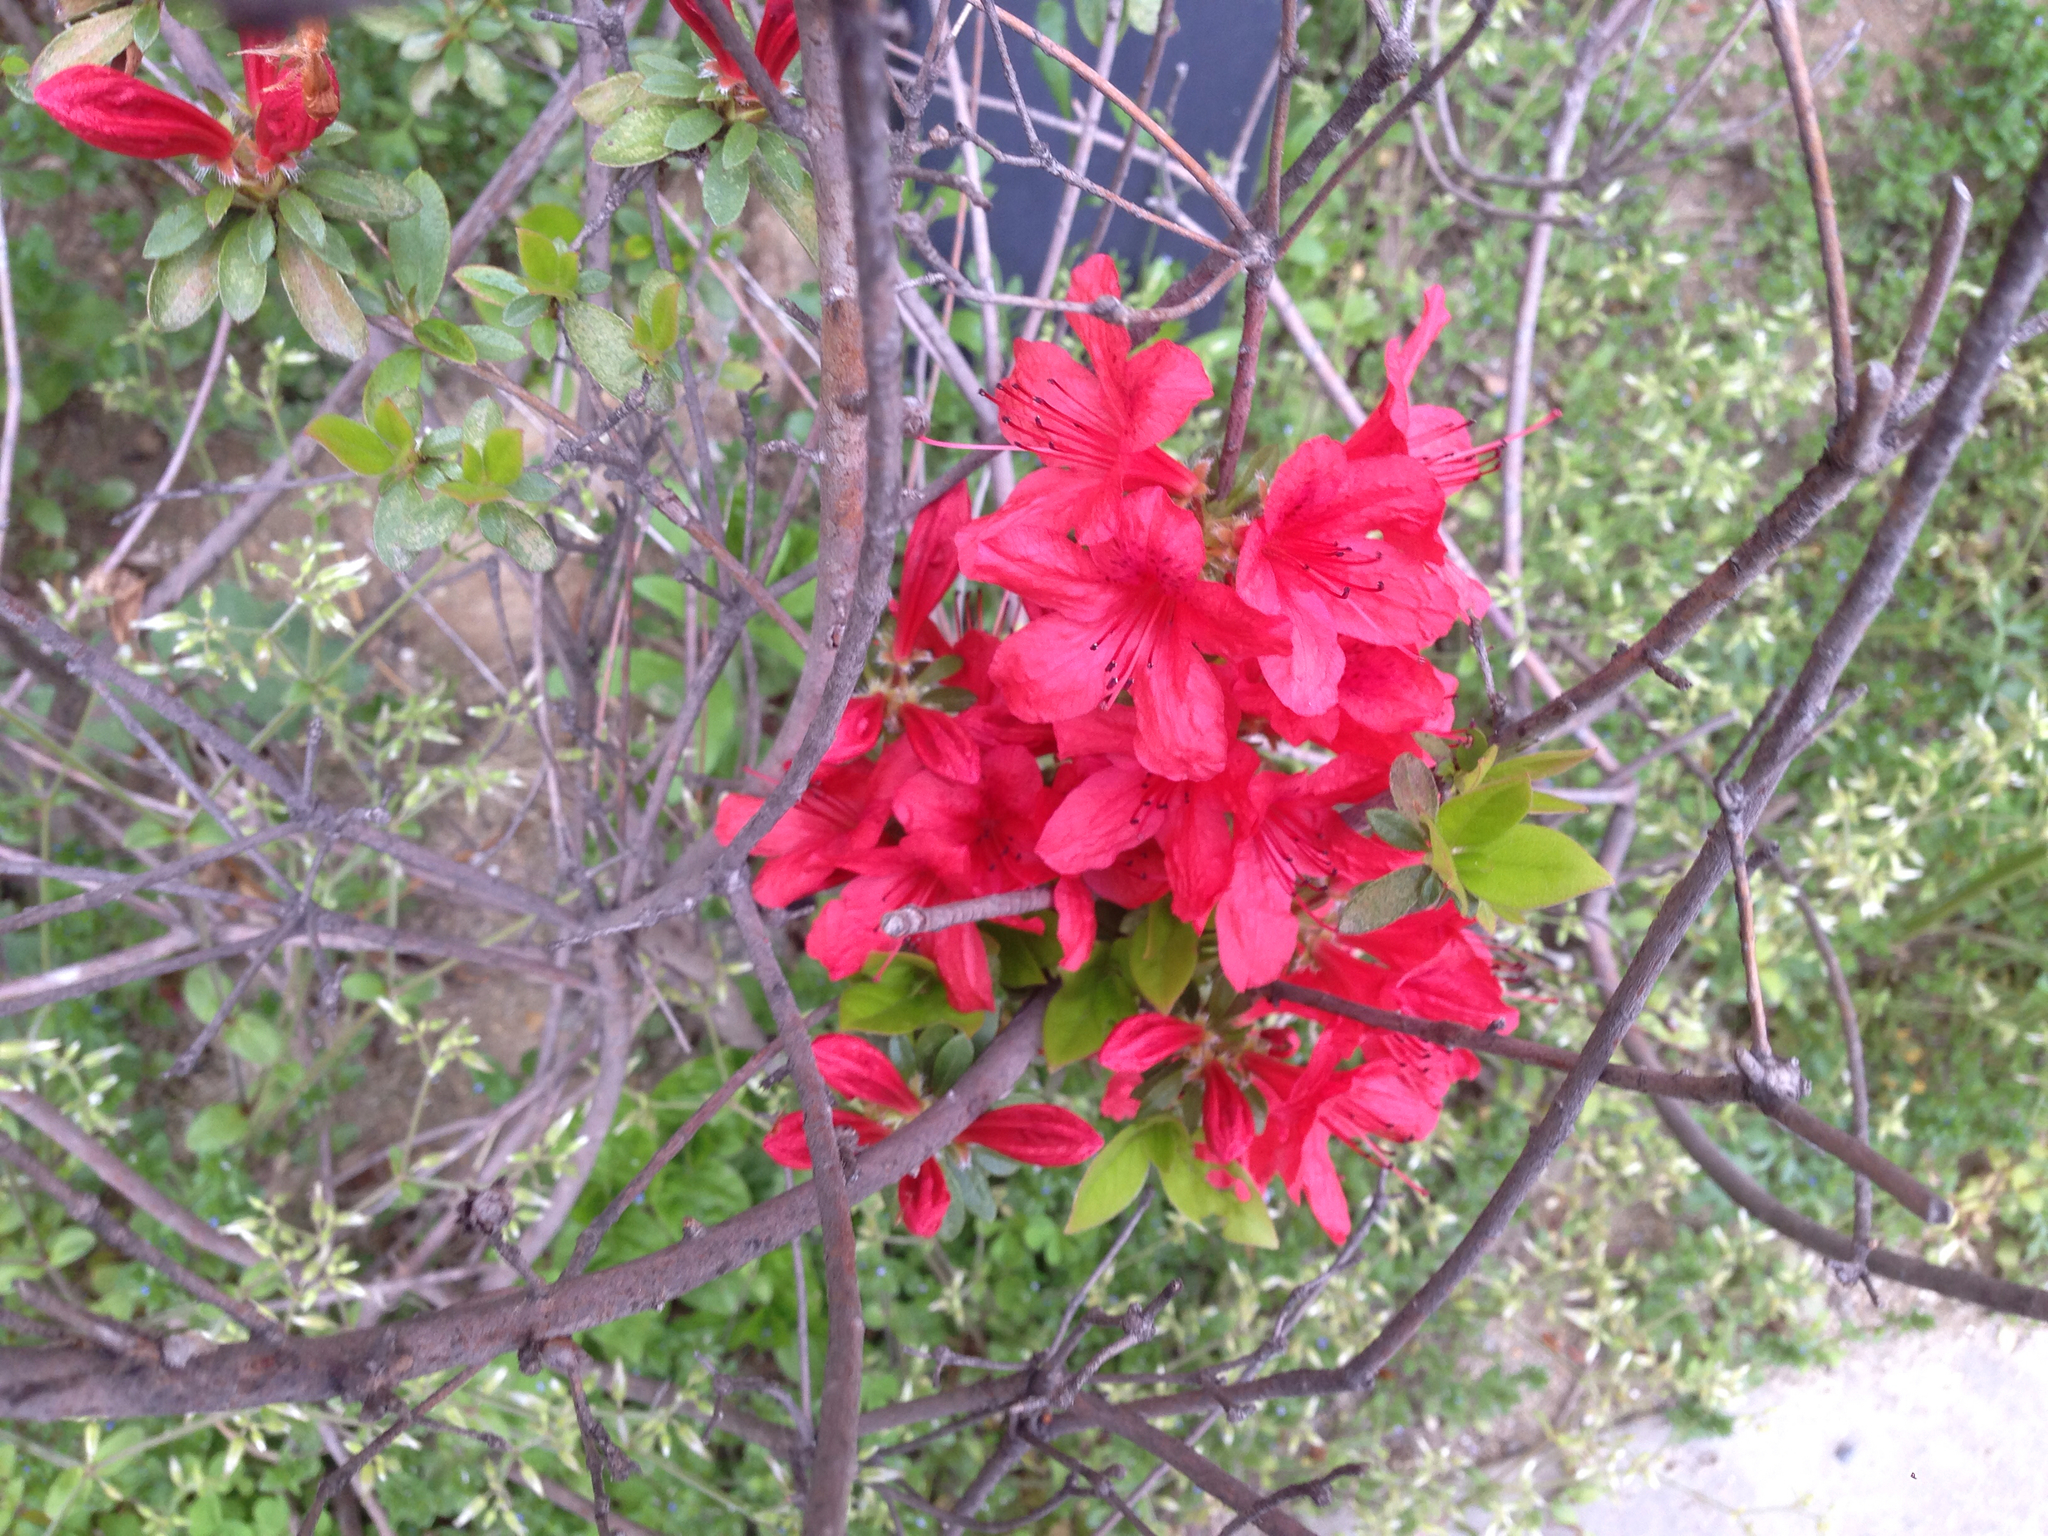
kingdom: Plantae
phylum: Tracheophyta
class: Magnoliopsida
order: Ericales
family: Ericaceae
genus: Rhododendron
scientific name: Rhododendron indicum
